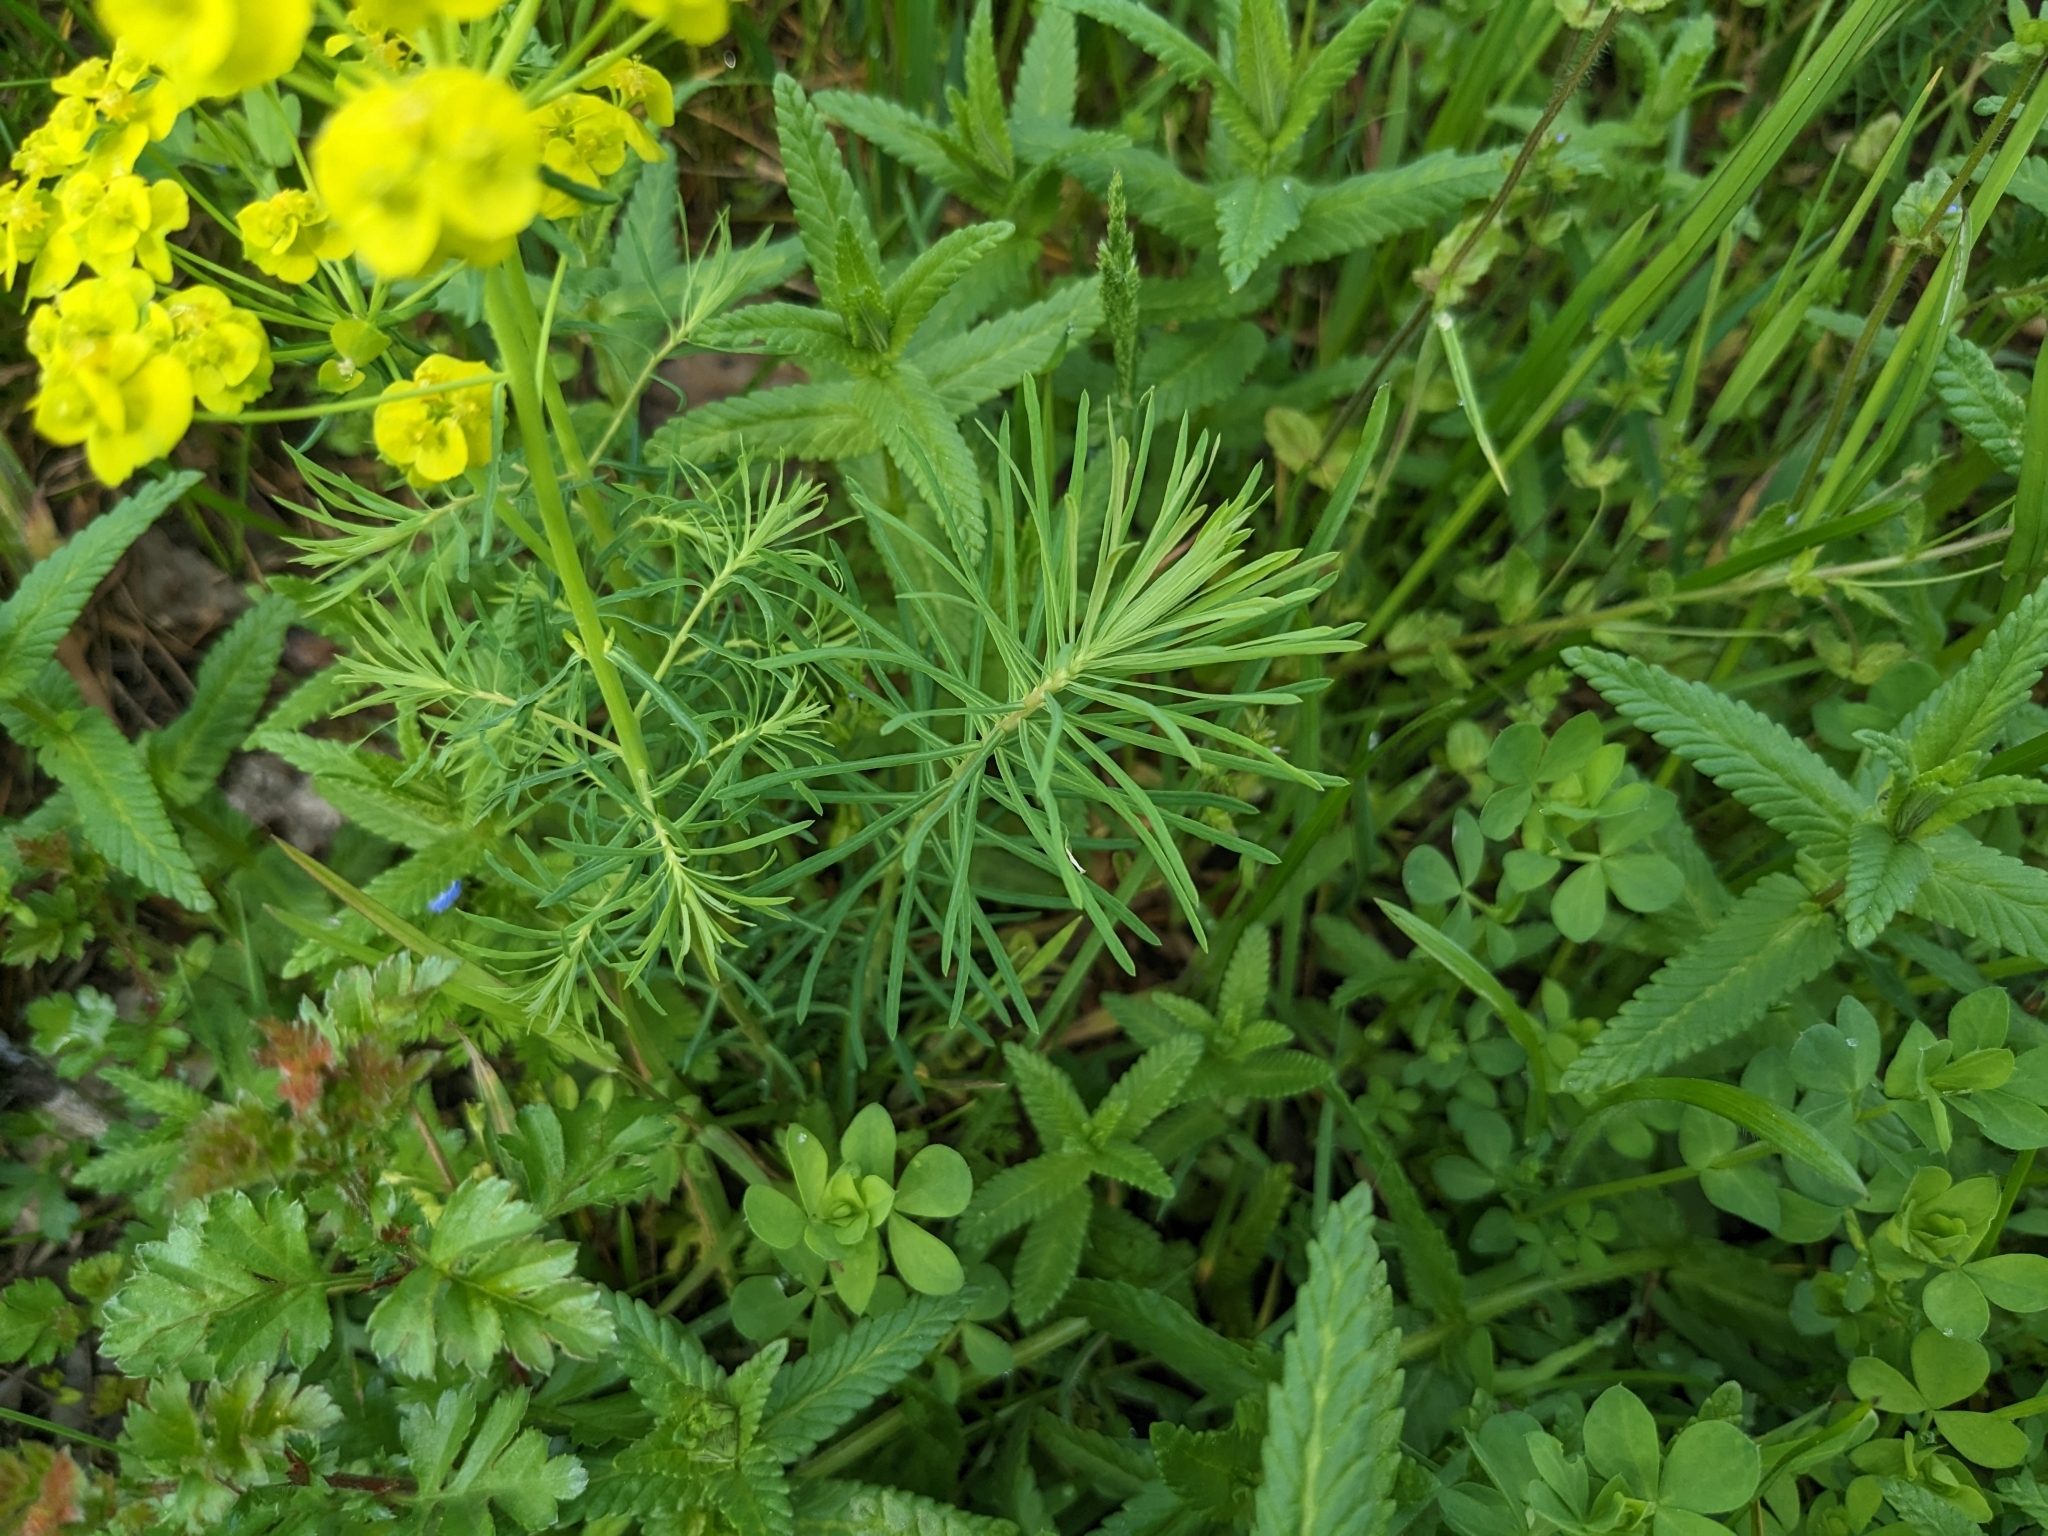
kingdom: Plantae
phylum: Tracheophyta
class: Magnoliopsida
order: Malpighiales
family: Euphorbiaceae
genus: Euphorbia
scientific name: Euphorbia cyparissias
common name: Cypress spurge
